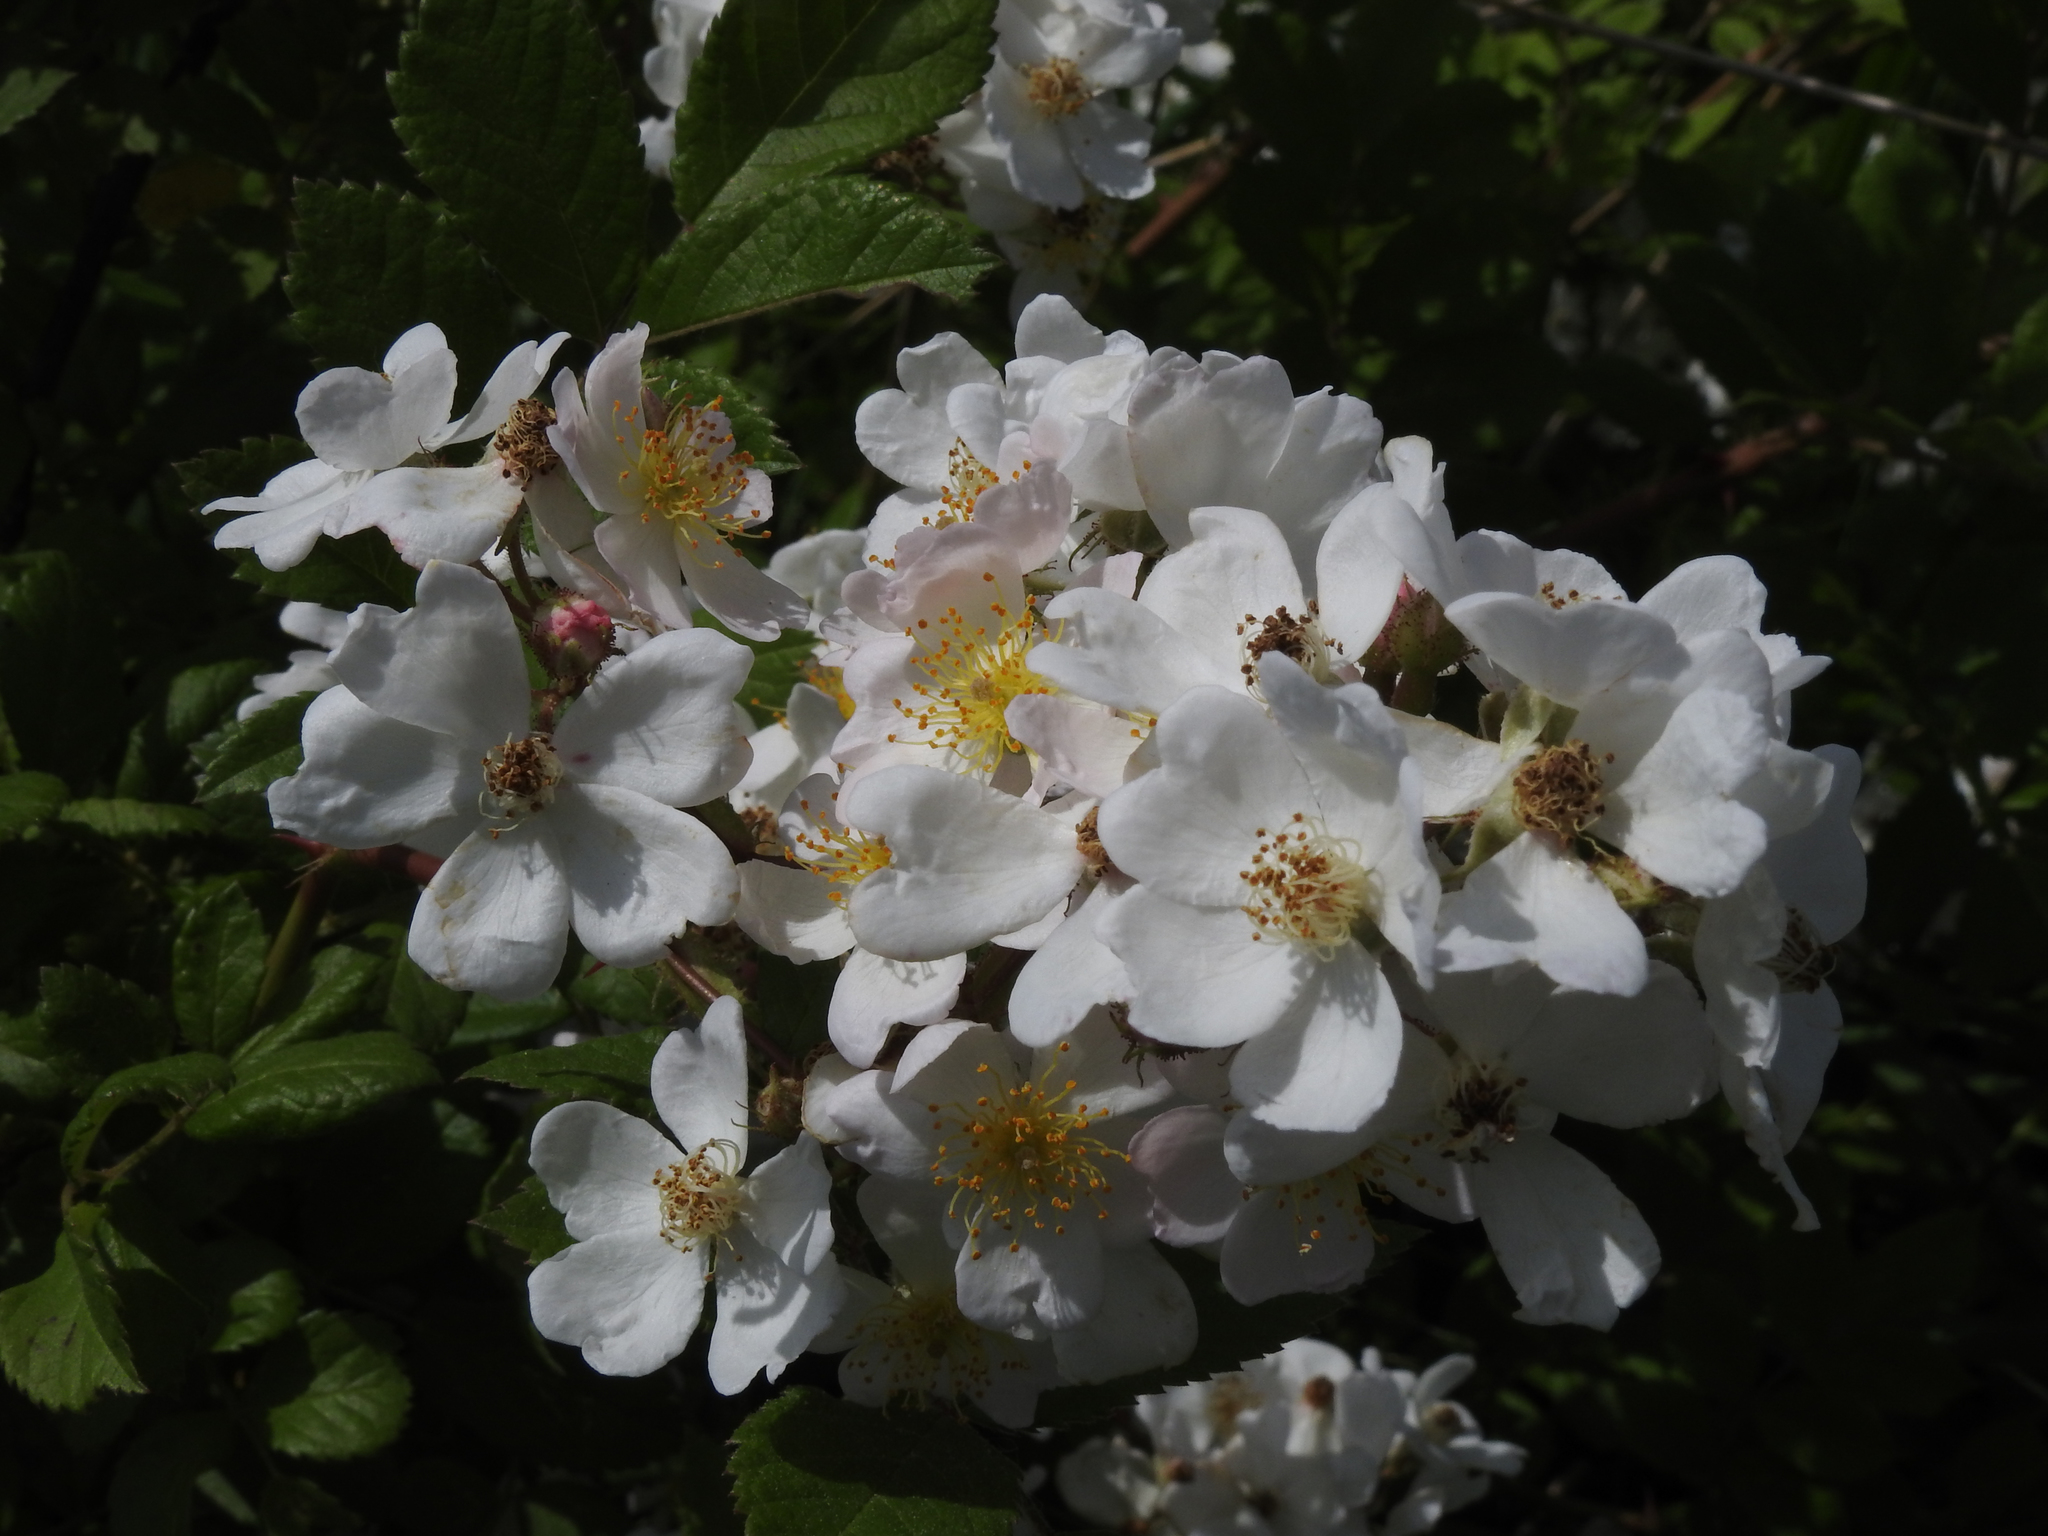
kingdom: Plantae
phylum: Tracheophyta
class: Magnoliopsida
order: Rosales
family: Rosaceae
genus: Rosa
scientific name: Rosa multiflora
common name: Multiflora rose
